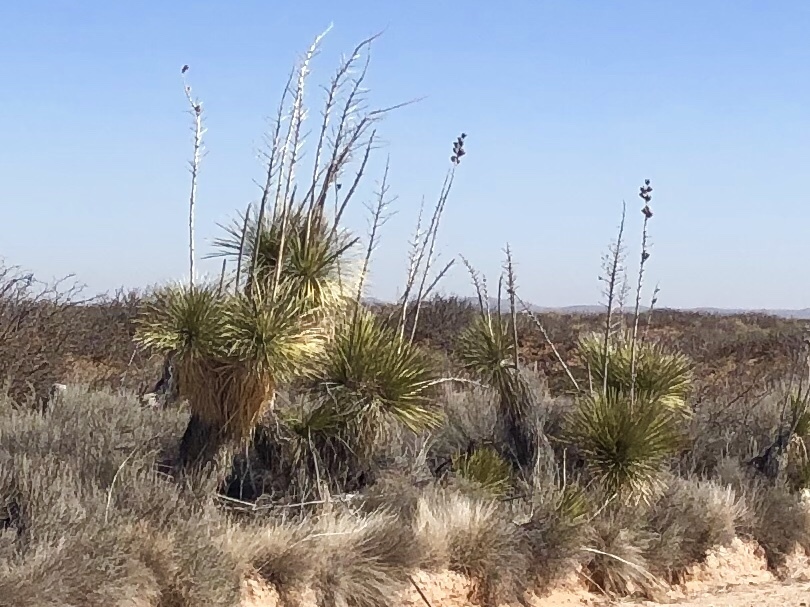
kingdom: Plantae
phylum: Tracheophyta
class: Liliopsida
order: Asparagales
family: Asparagaceae
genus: Yucca
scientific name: Yucca elata
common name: Palmella
